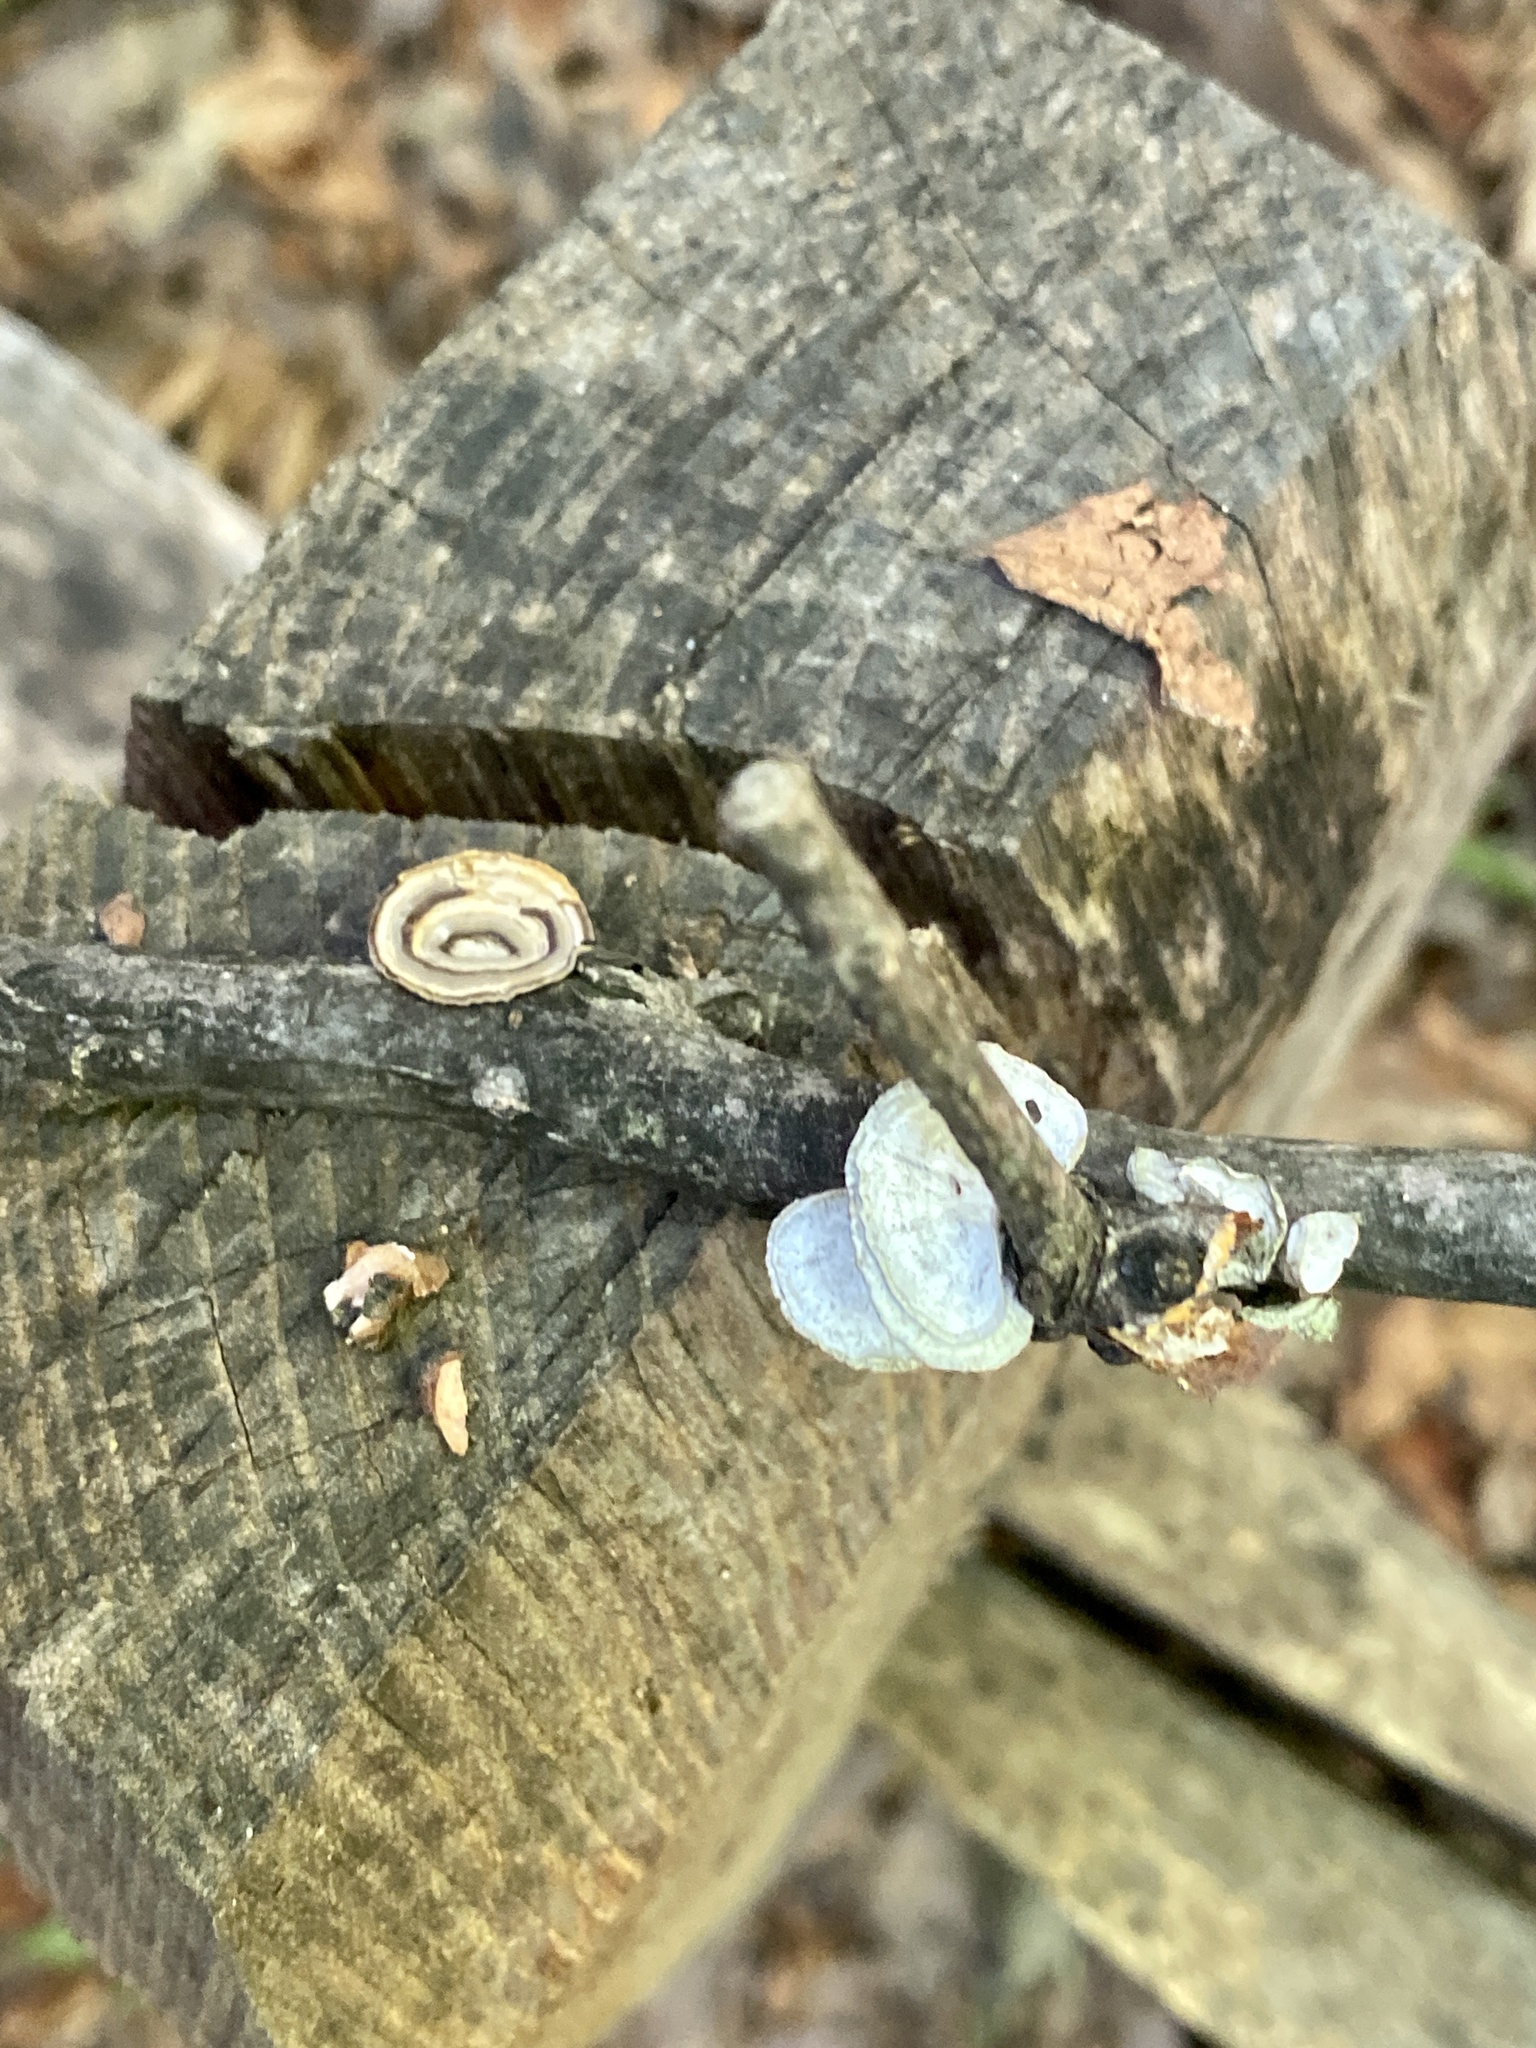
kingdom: Fungi
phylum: Basidiomycota
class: Agaricomycetes
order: Polyporales
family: Polyporaceae
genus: Poronidulus
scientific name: Poronidulus conchifer
